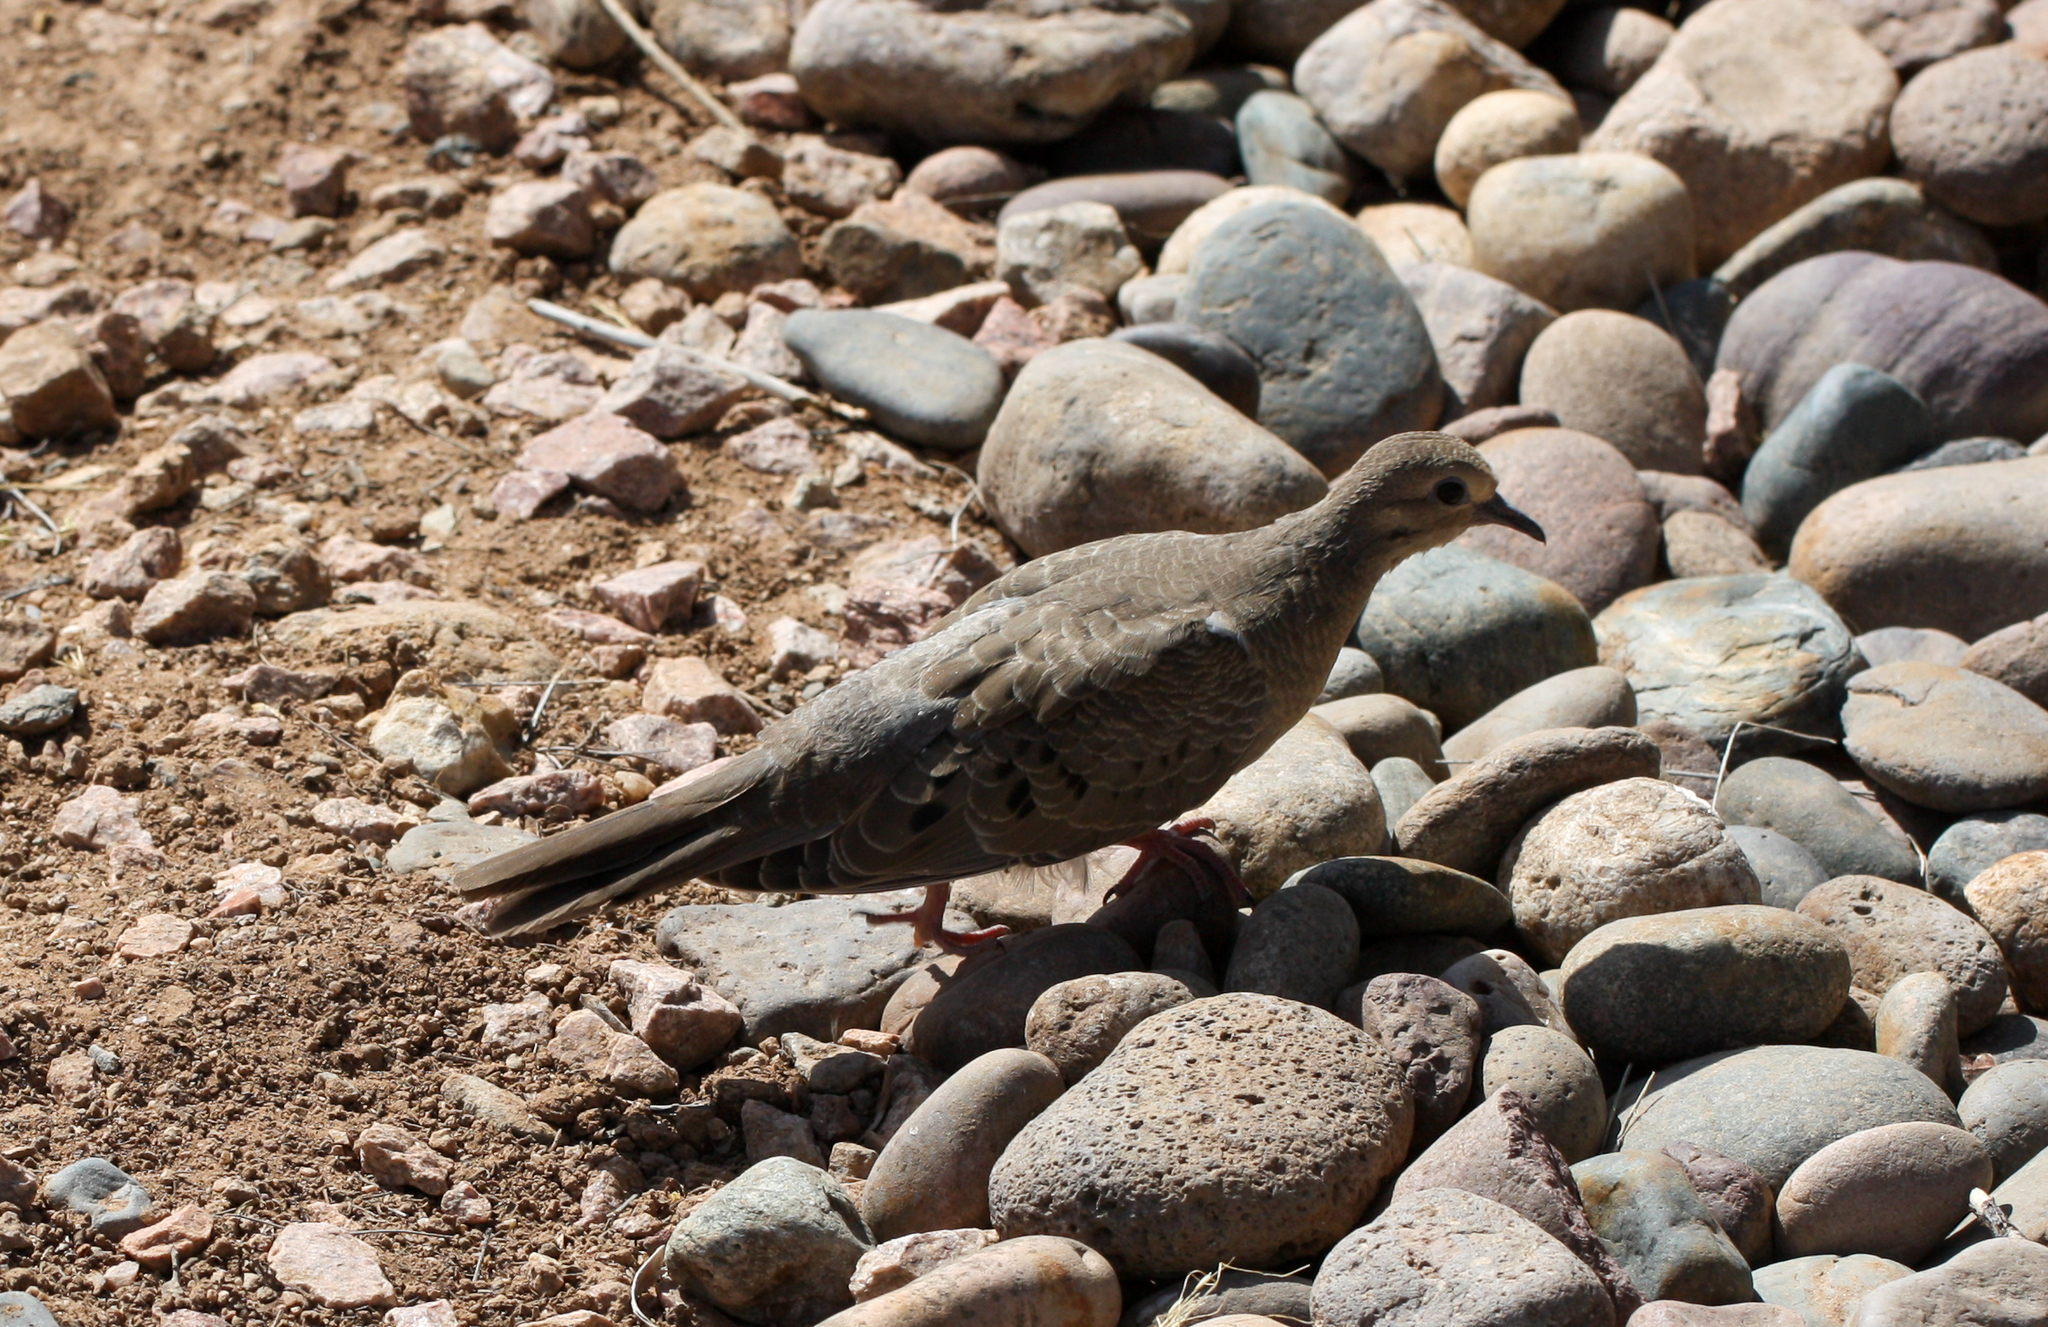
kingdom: Animalia
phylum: Chordata
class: Aves
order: Columbiformes
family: Columbidae
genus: Zenaida
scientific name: Zenaida macroura
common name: Mourning dove
